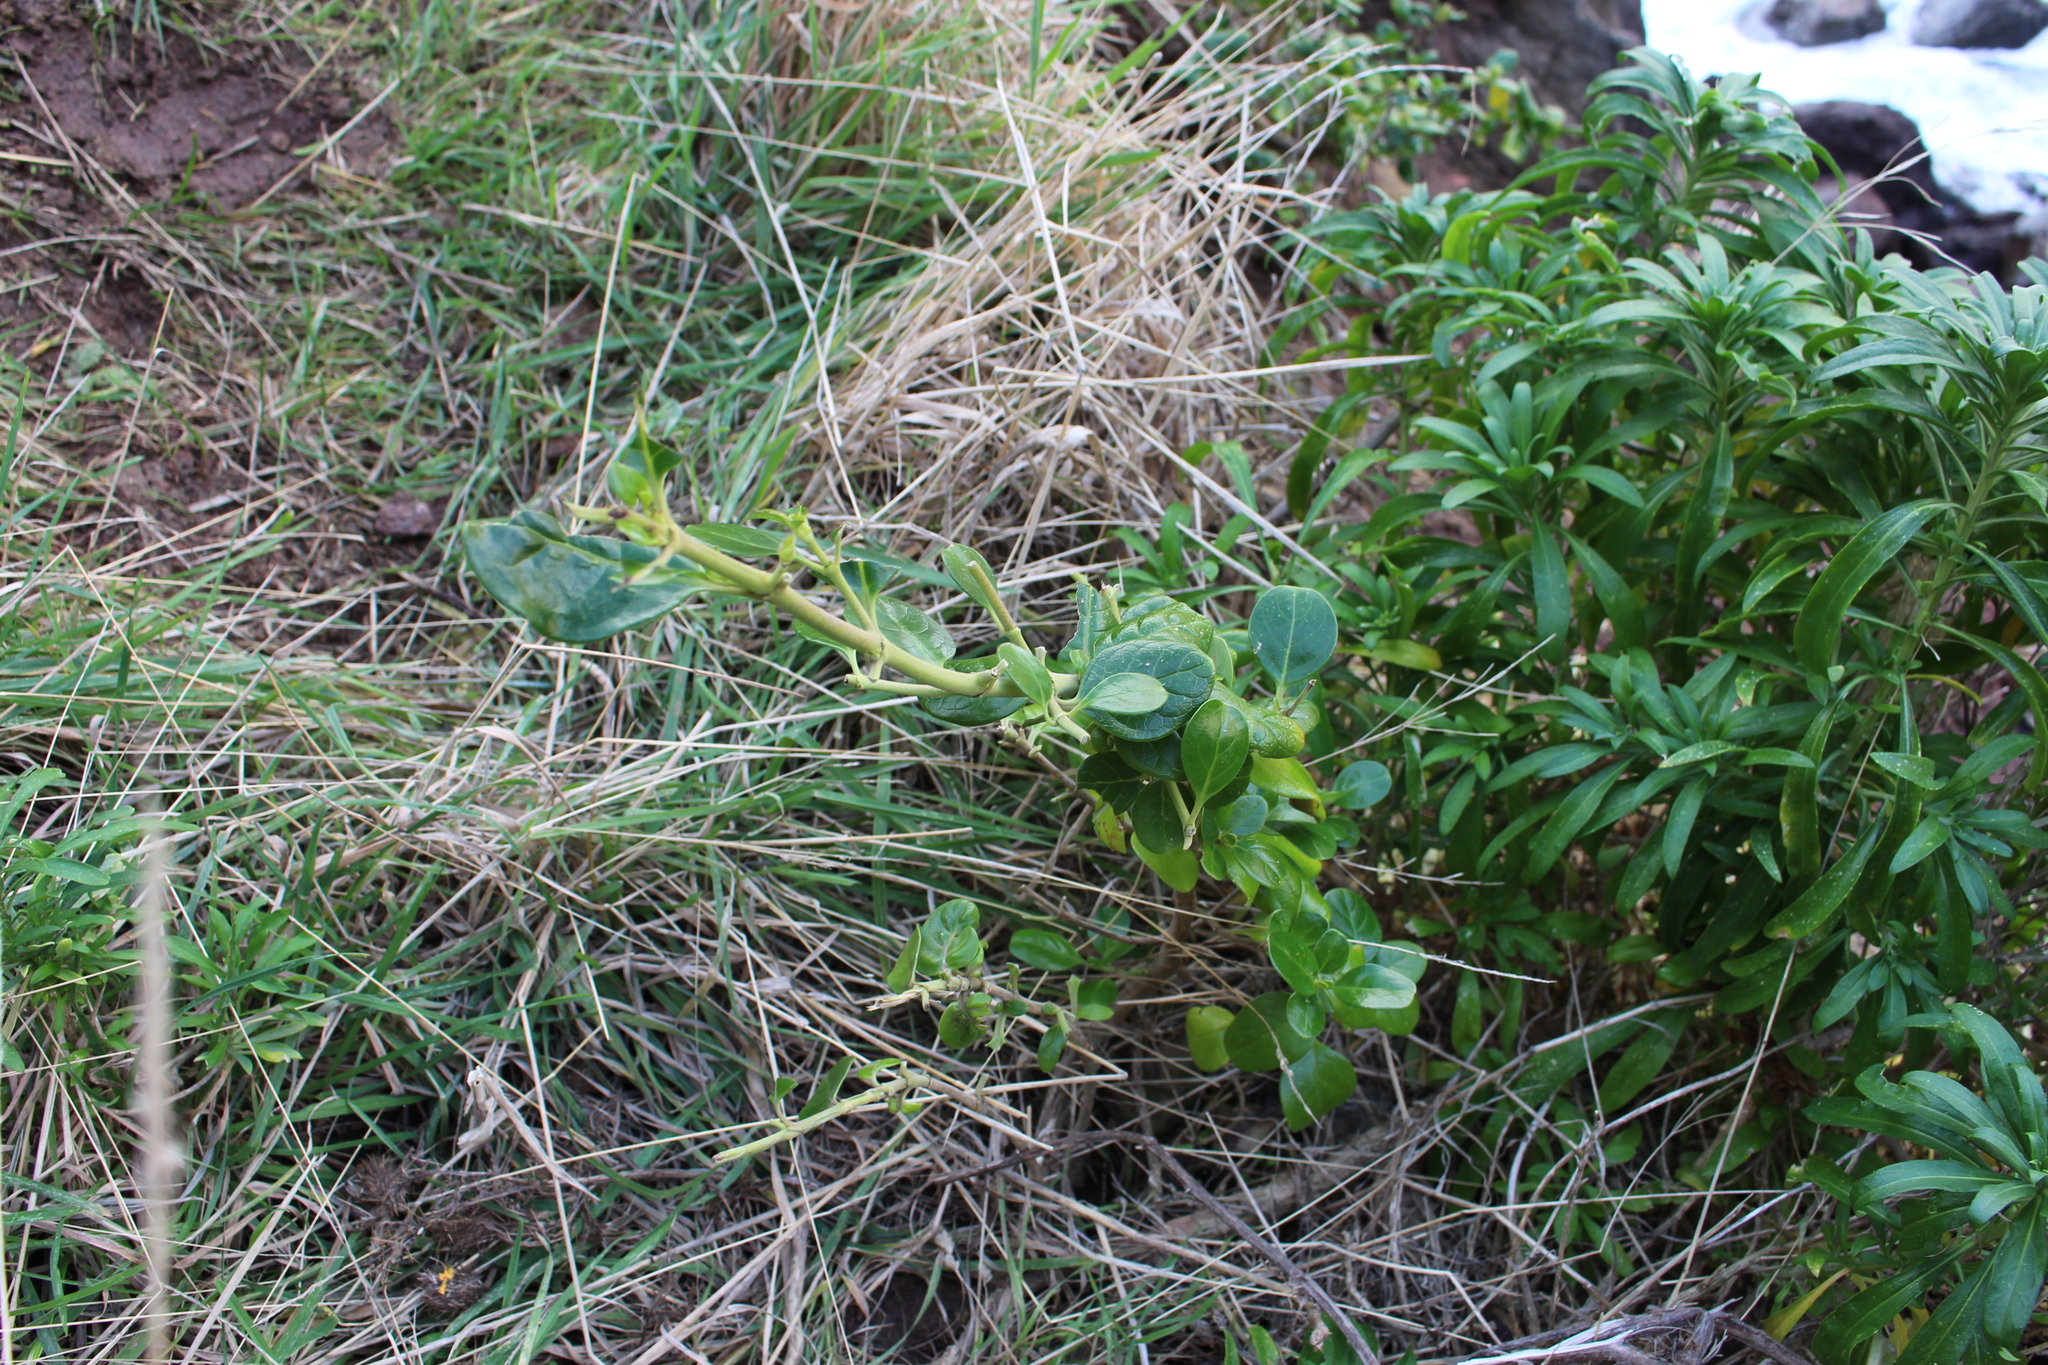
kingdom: Plantae
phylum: Tracheophyta
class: Magnoliopsida
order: Gentianales
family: Rubiaceae
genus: Coprosma
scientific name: Coprosma repens
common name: Tree bedstraw
